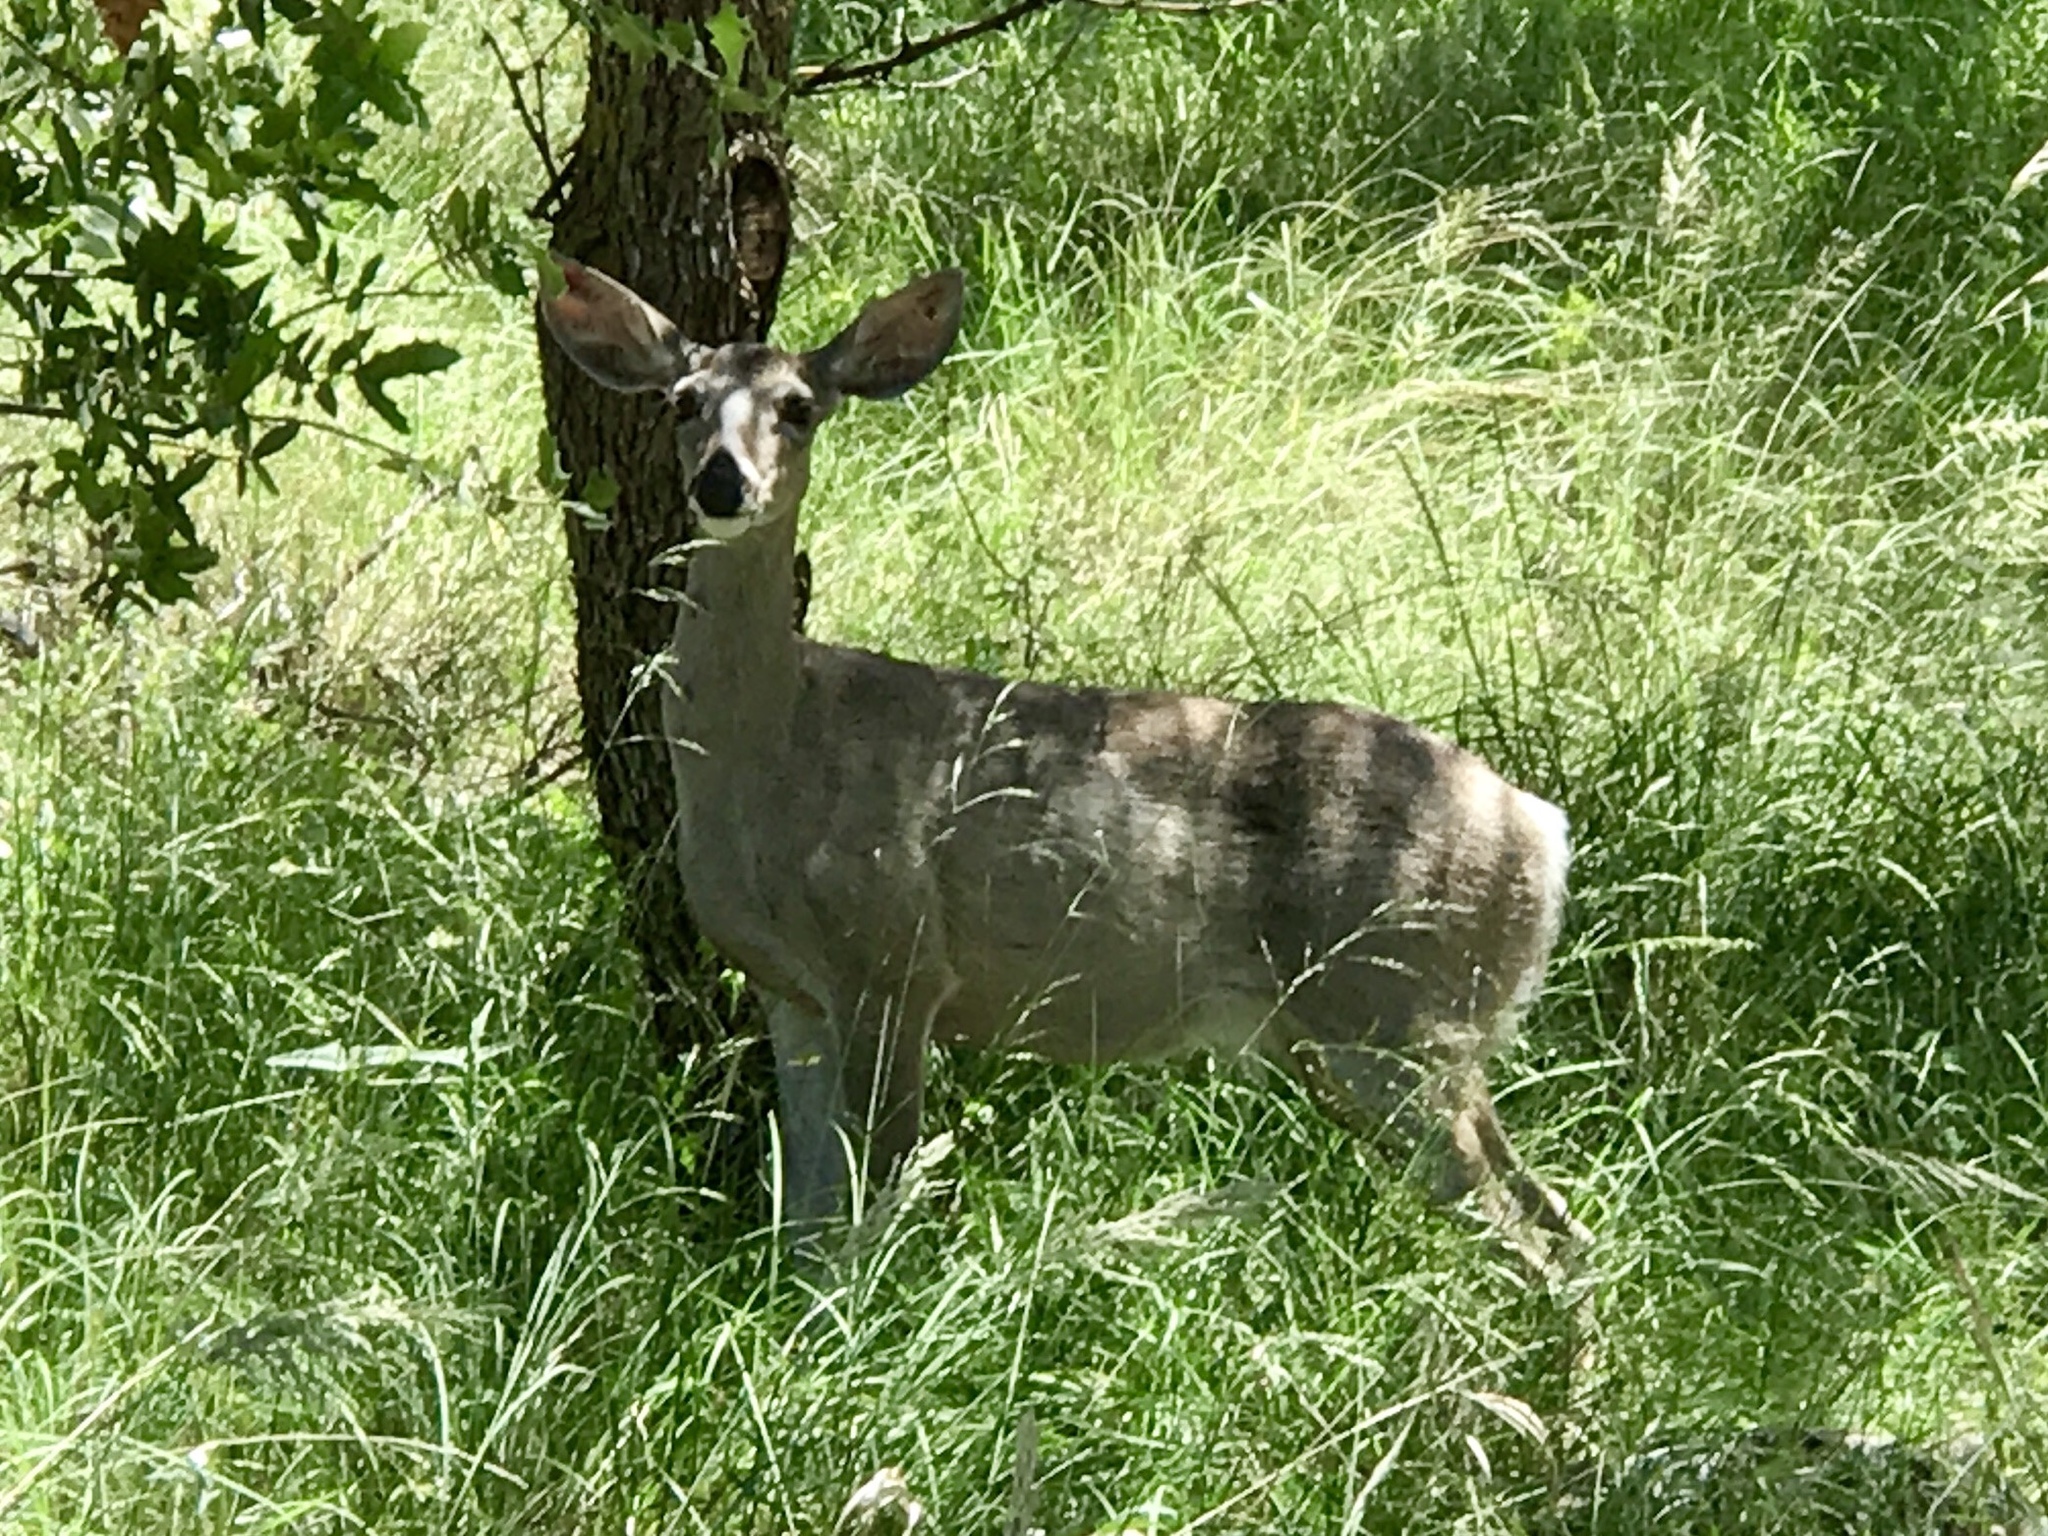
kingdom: Animalia
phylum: Chordata
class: Mammalia
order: Artiodactyla
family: Cervidae
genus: Odocoileus
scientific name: Odocoileus virginianus
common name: White-tailed deer
